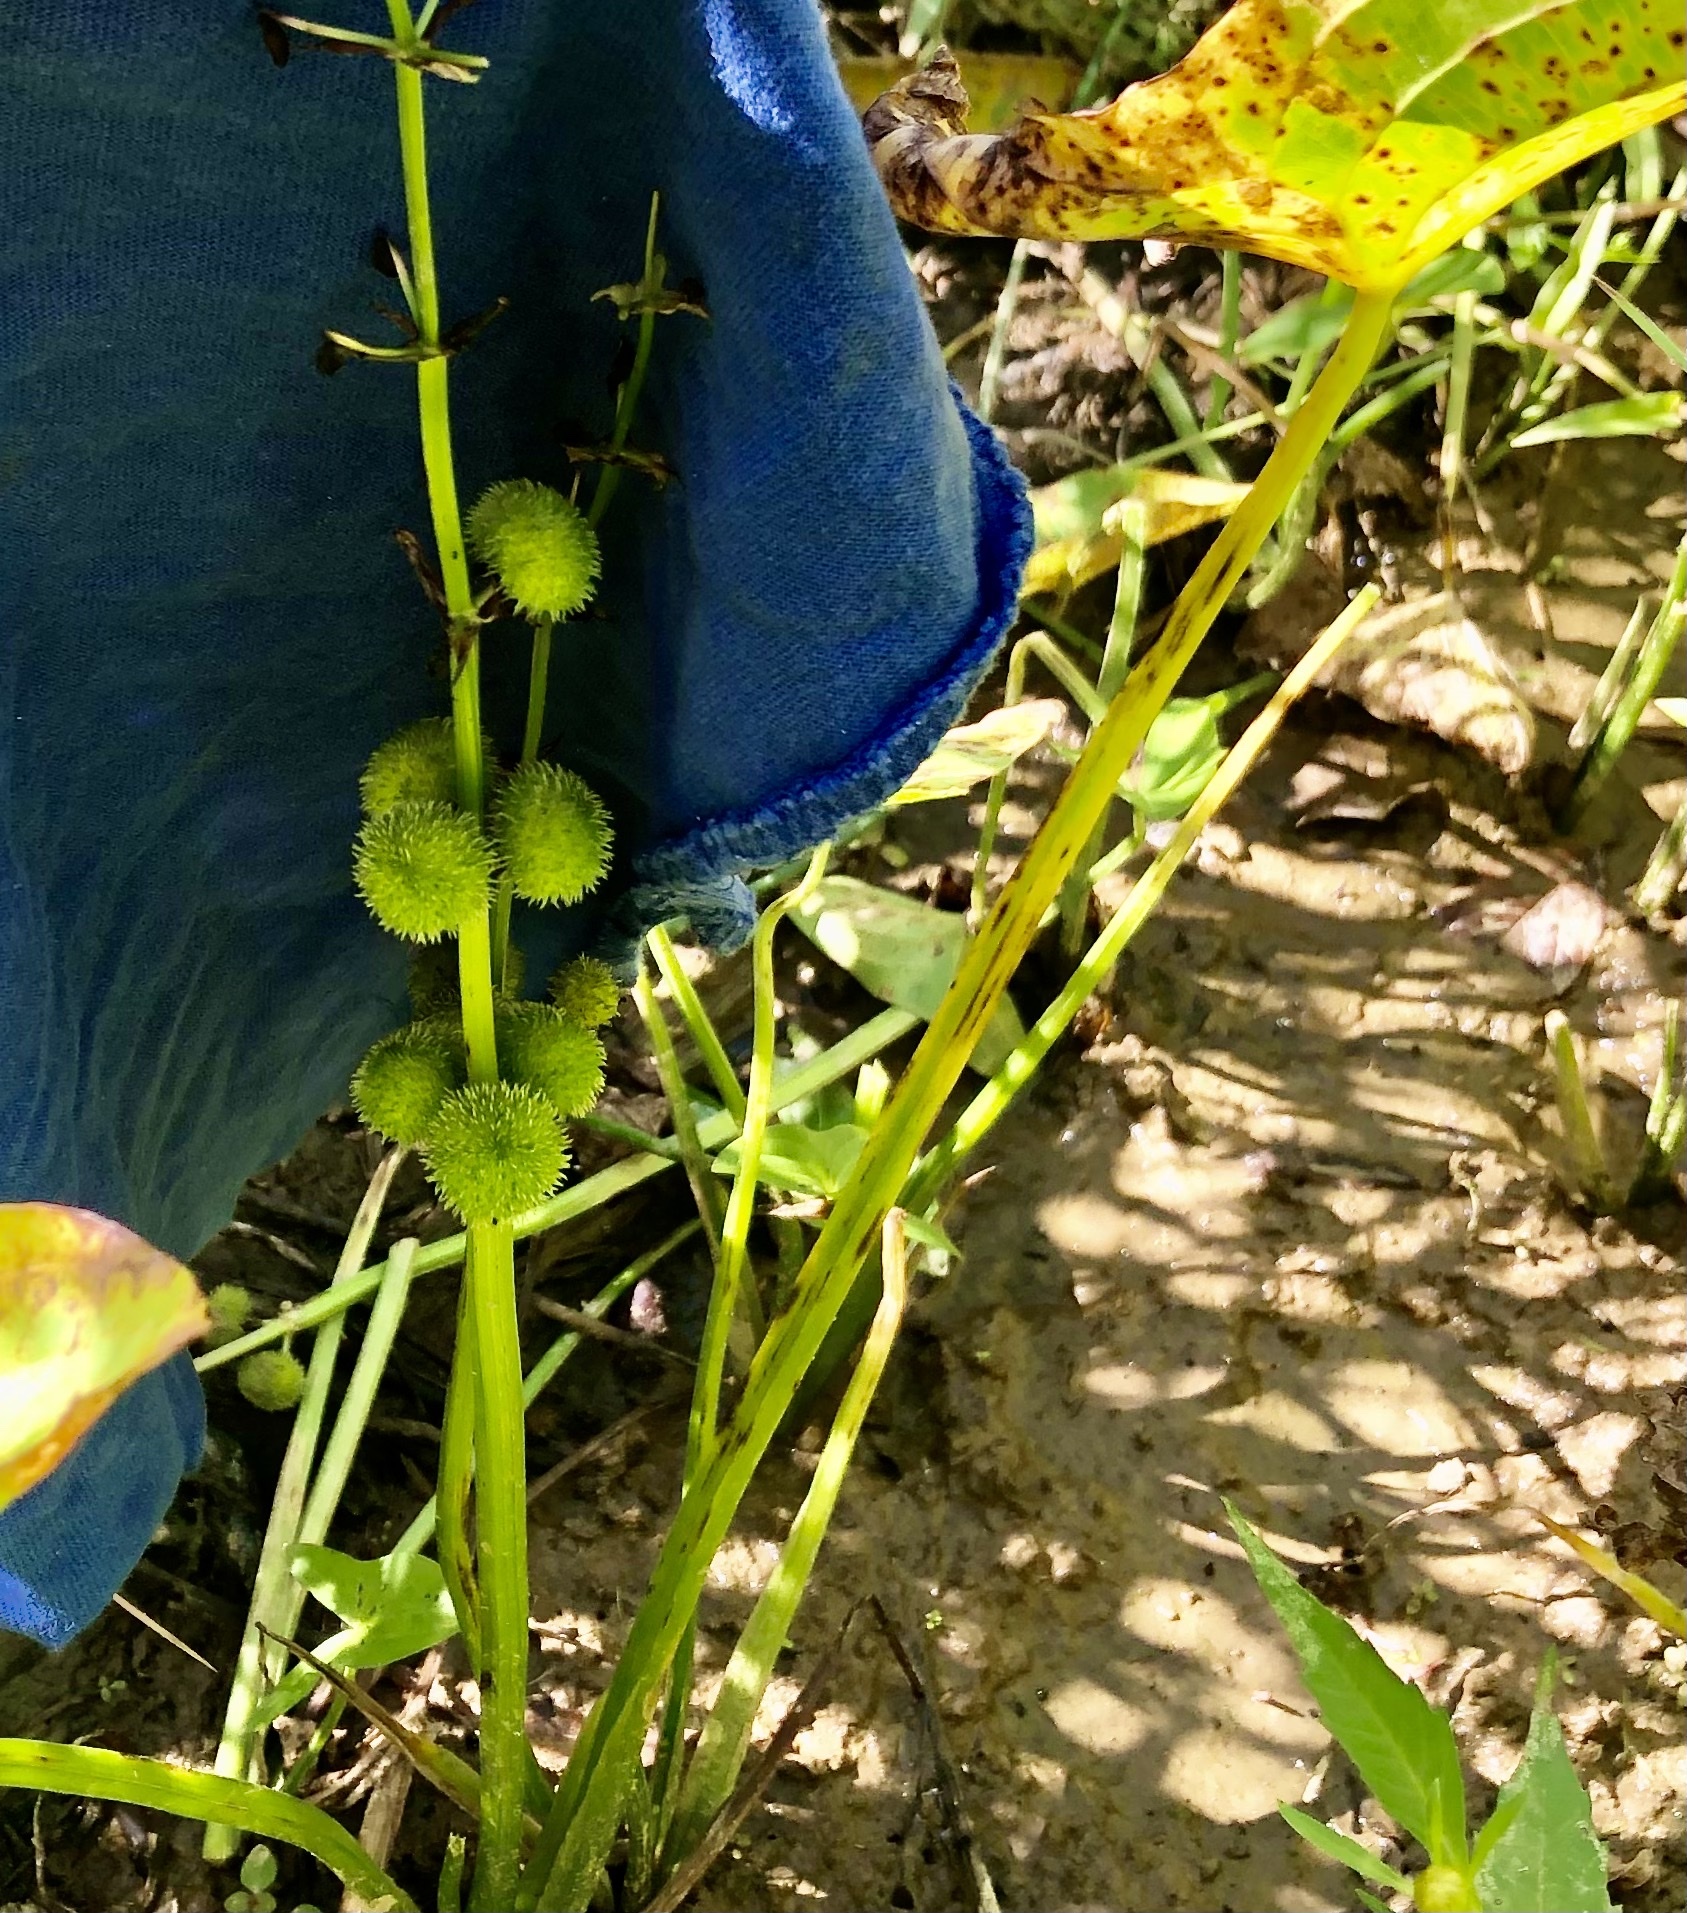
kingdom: Plantae
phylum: Tracheophyta
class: Liliopsida
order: Alismatales
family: Alismataceae
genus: Sagittaria
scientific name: Sagittaria australis
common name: Appalachian arrowhead
